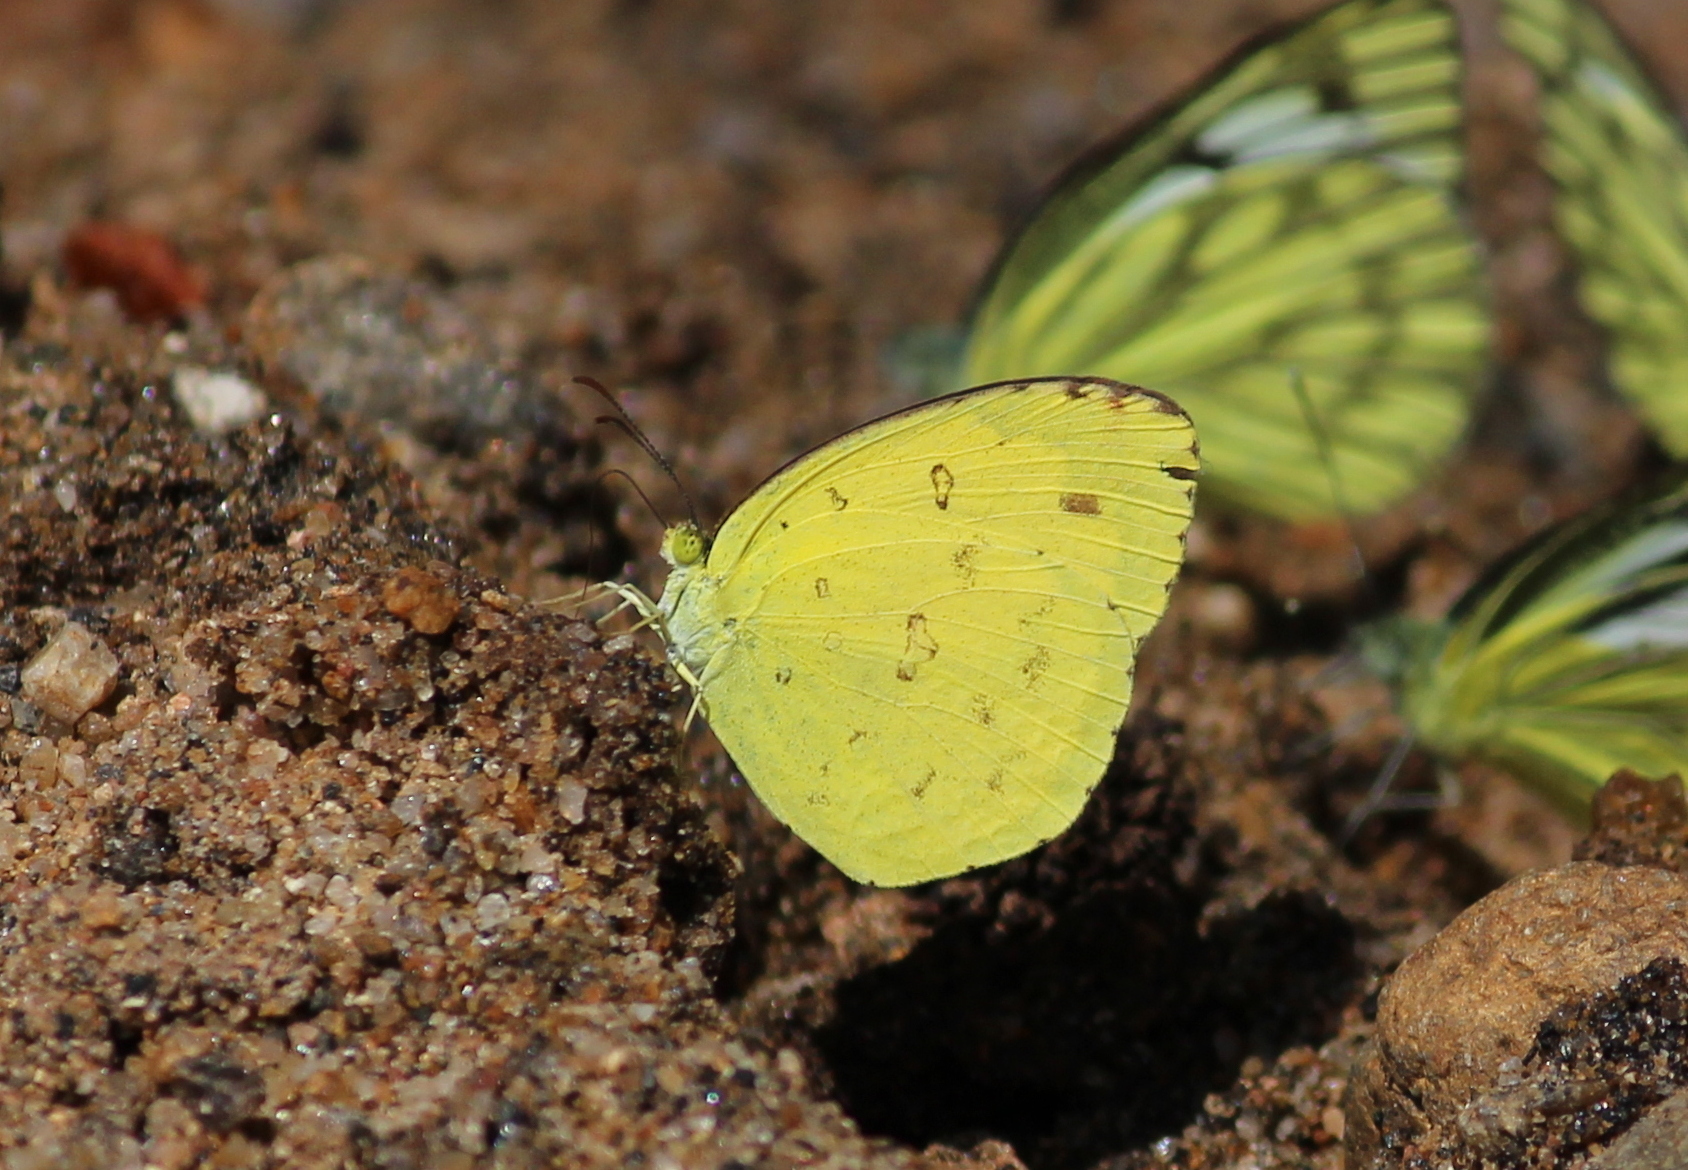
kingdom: Animalia
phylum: Arthropoda
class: Insecta
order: Lepidoptera
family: Pieridae
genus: Eurema
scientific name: Eurema hecabe
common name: Pale grass yellow
